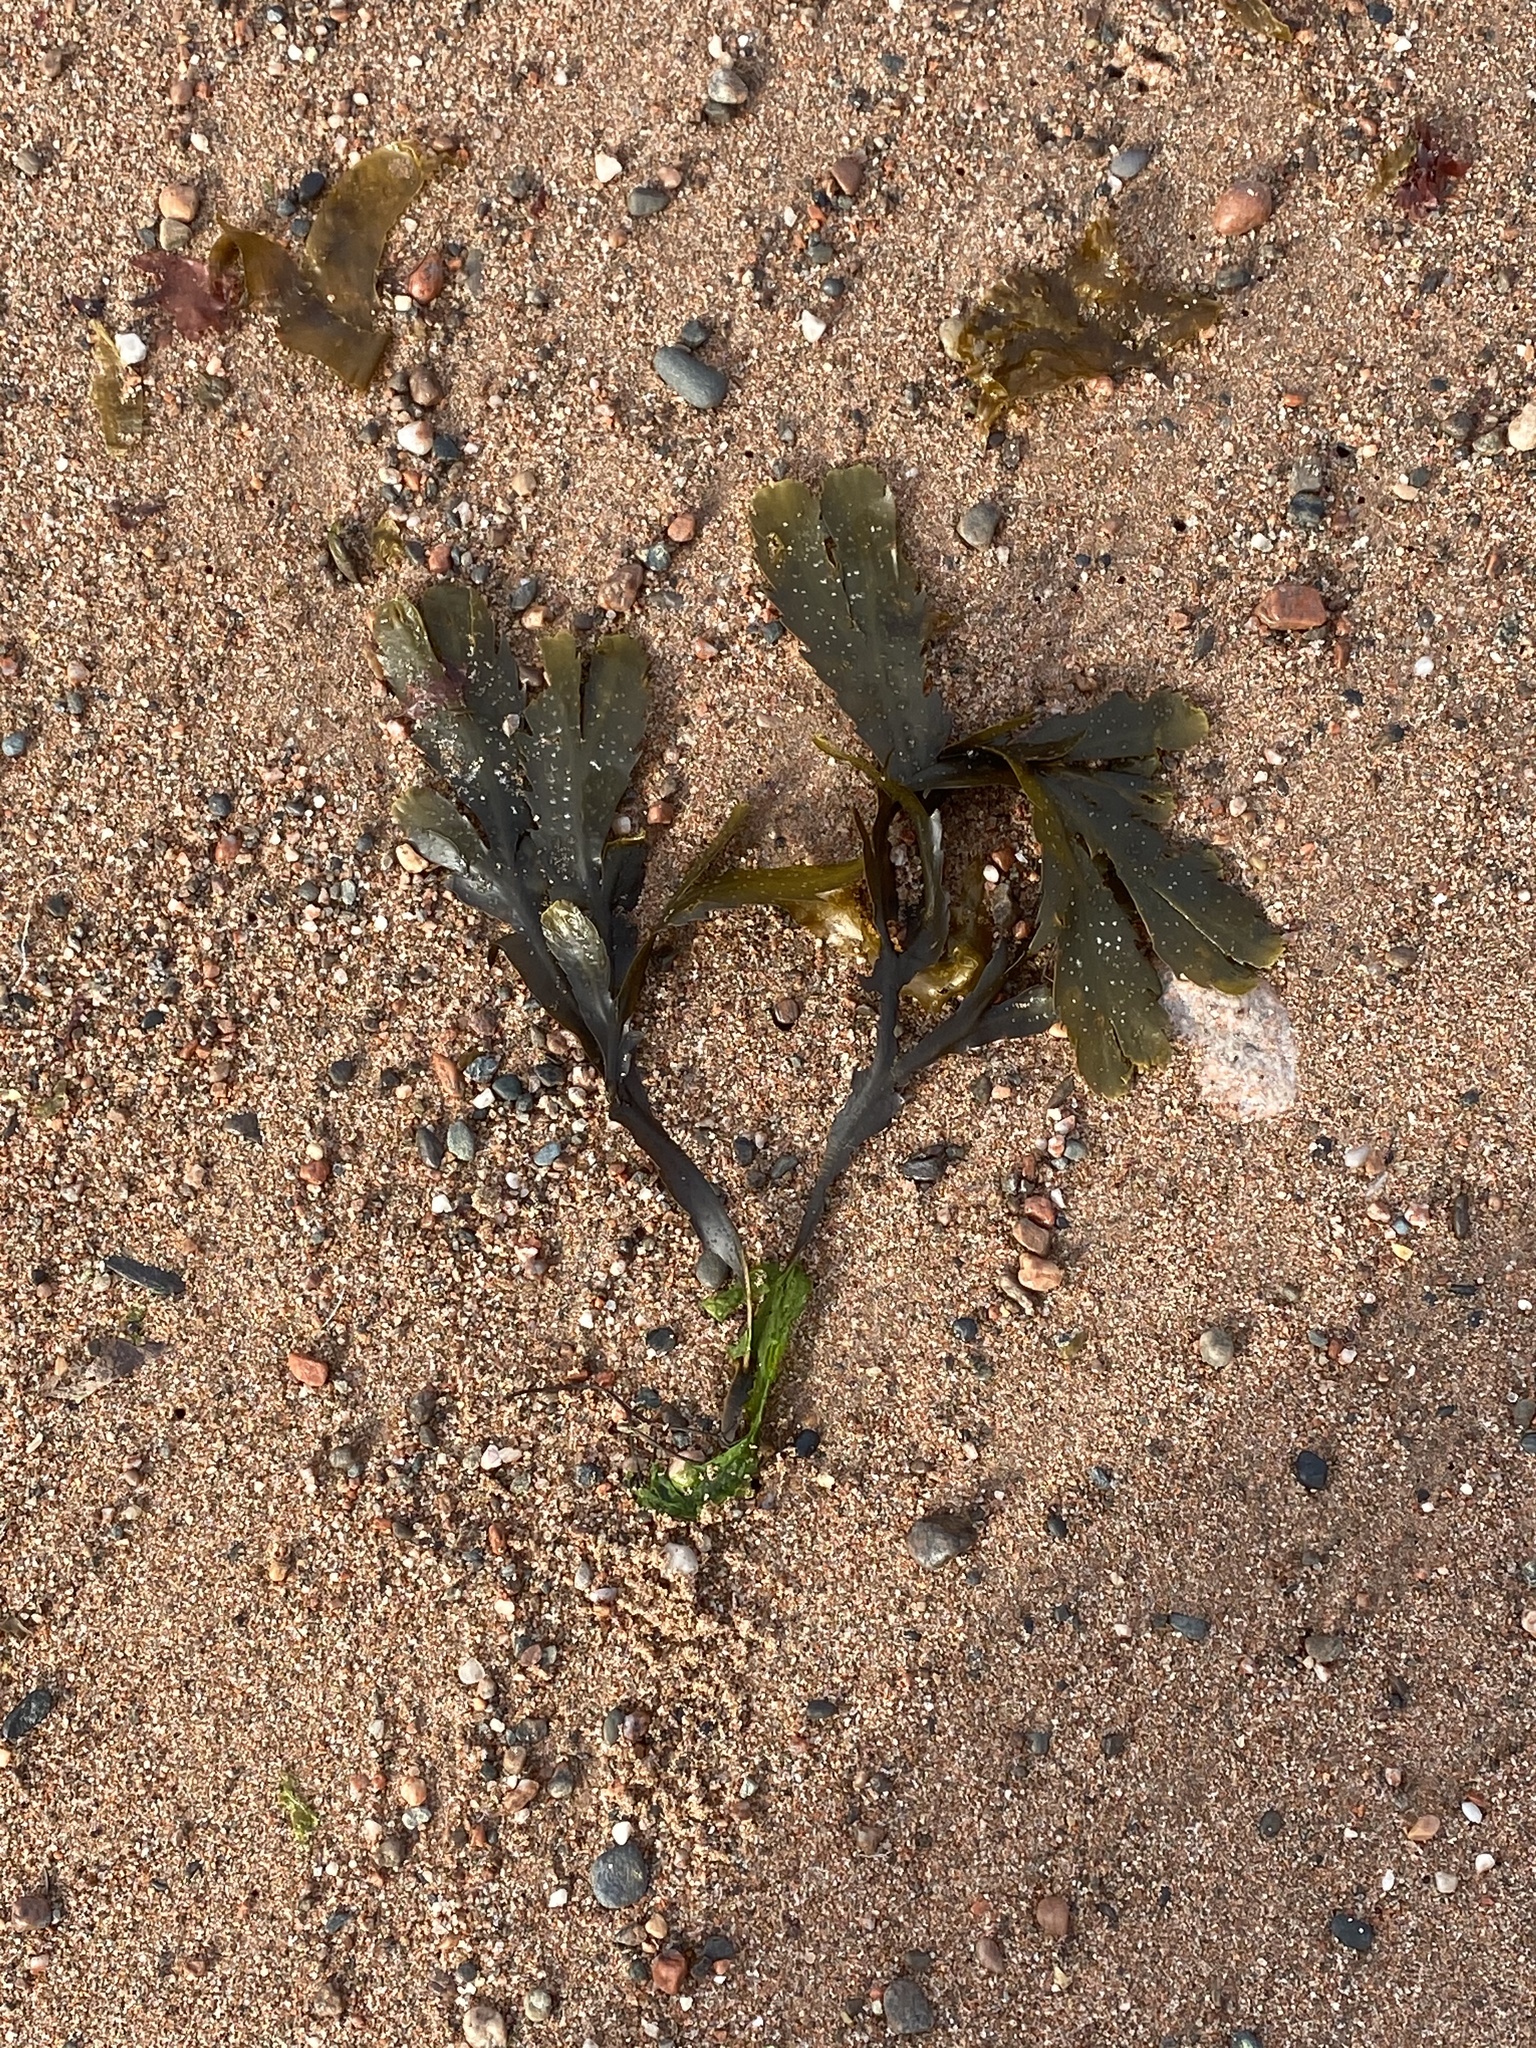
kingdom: Chromista
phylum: Ochrophyta
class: Phaeophyceae
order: Fucales
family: Fucaceae
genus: Fucus
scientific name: Fucus serratus
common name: Toothed wrack
